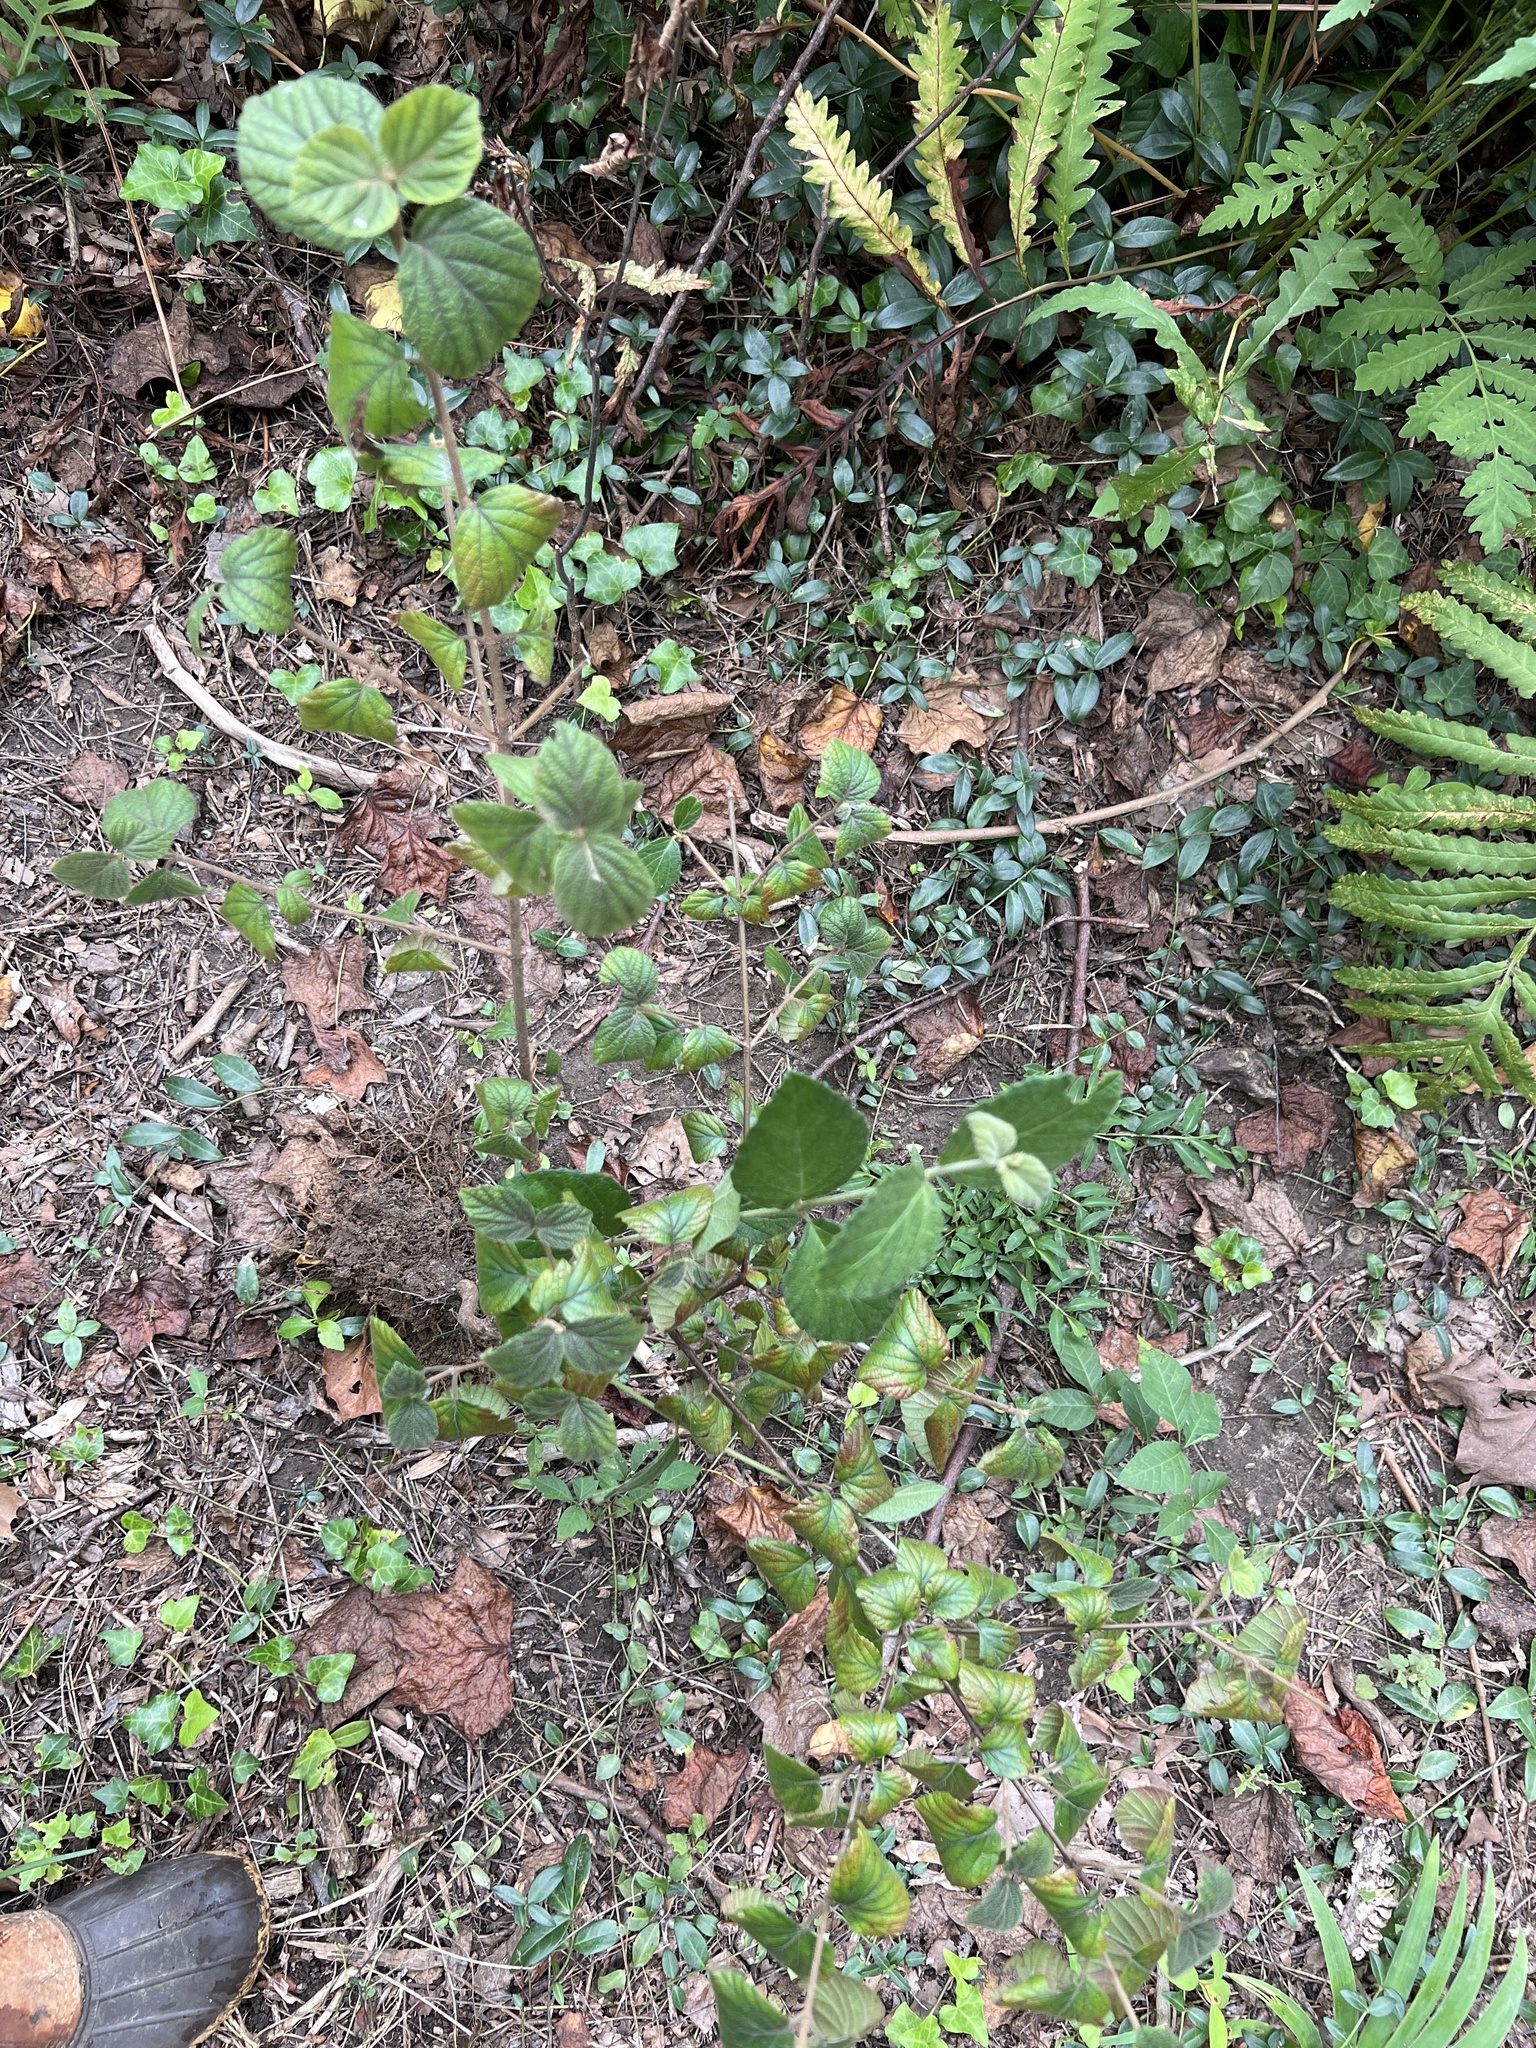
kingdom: Plantae
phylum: Tracheophyta
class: Magnoliopsida
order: Dipsacales
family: Viburnaceae
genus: Viburnum
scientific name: Viburnum dilatatum
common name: Linden arrowwood
